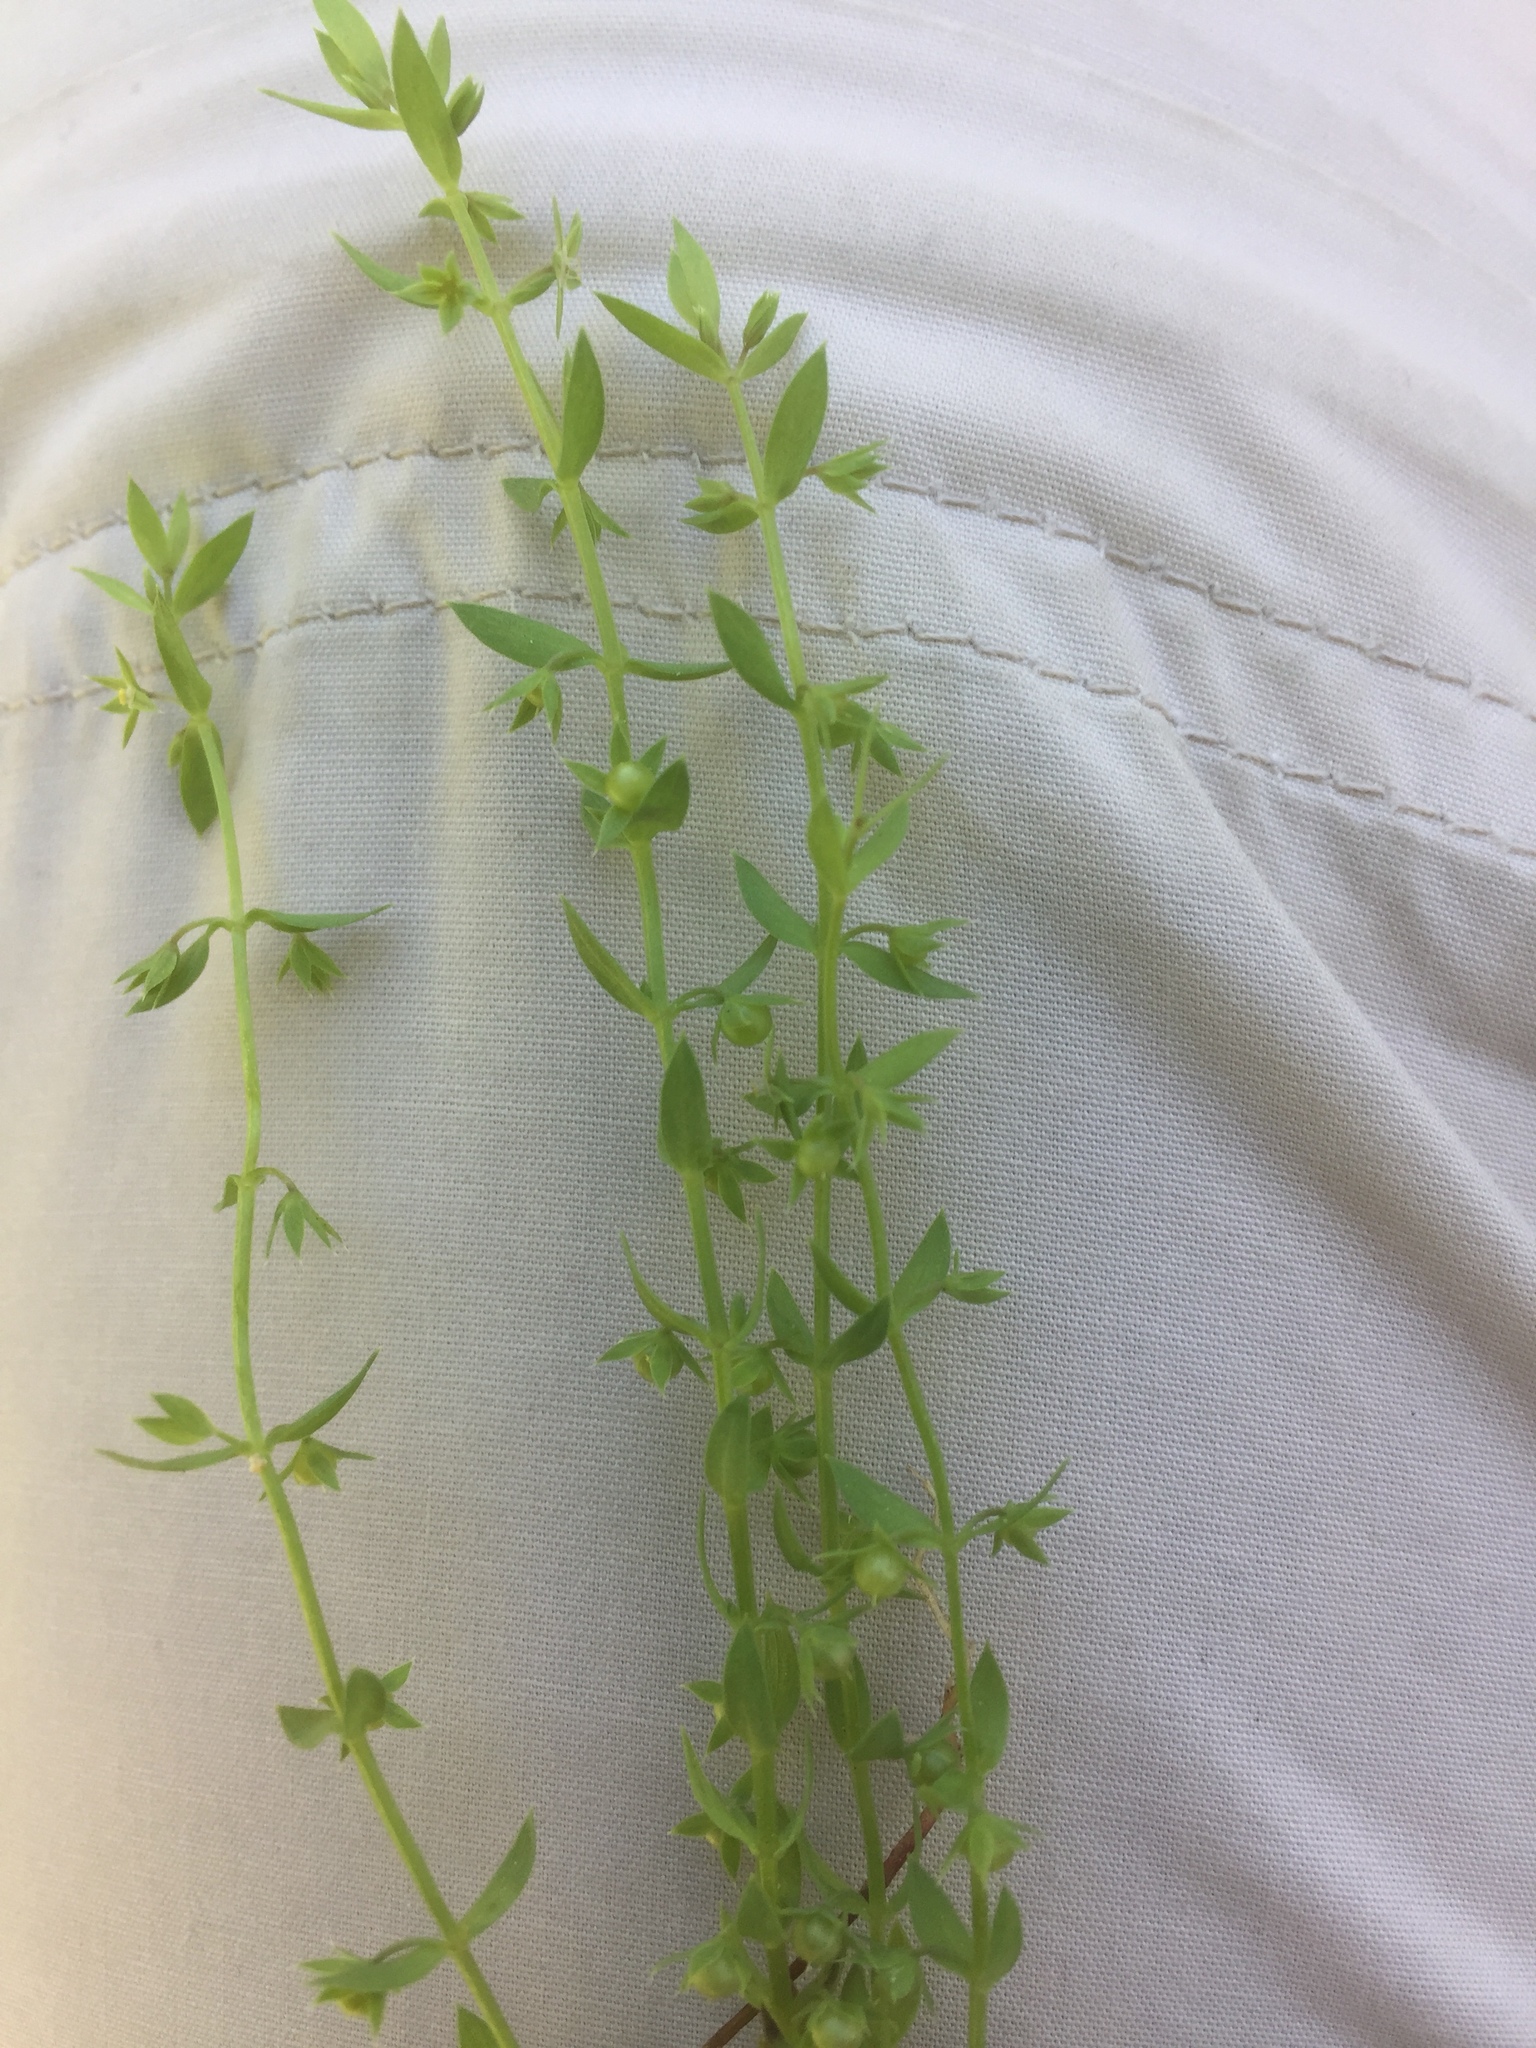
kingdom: Plantae
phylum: Tracheophyta
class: Magnoliopsida
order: Ericales
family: Primulaceae
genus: Lysimachia
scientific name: Lysimachia linum-stellatum
